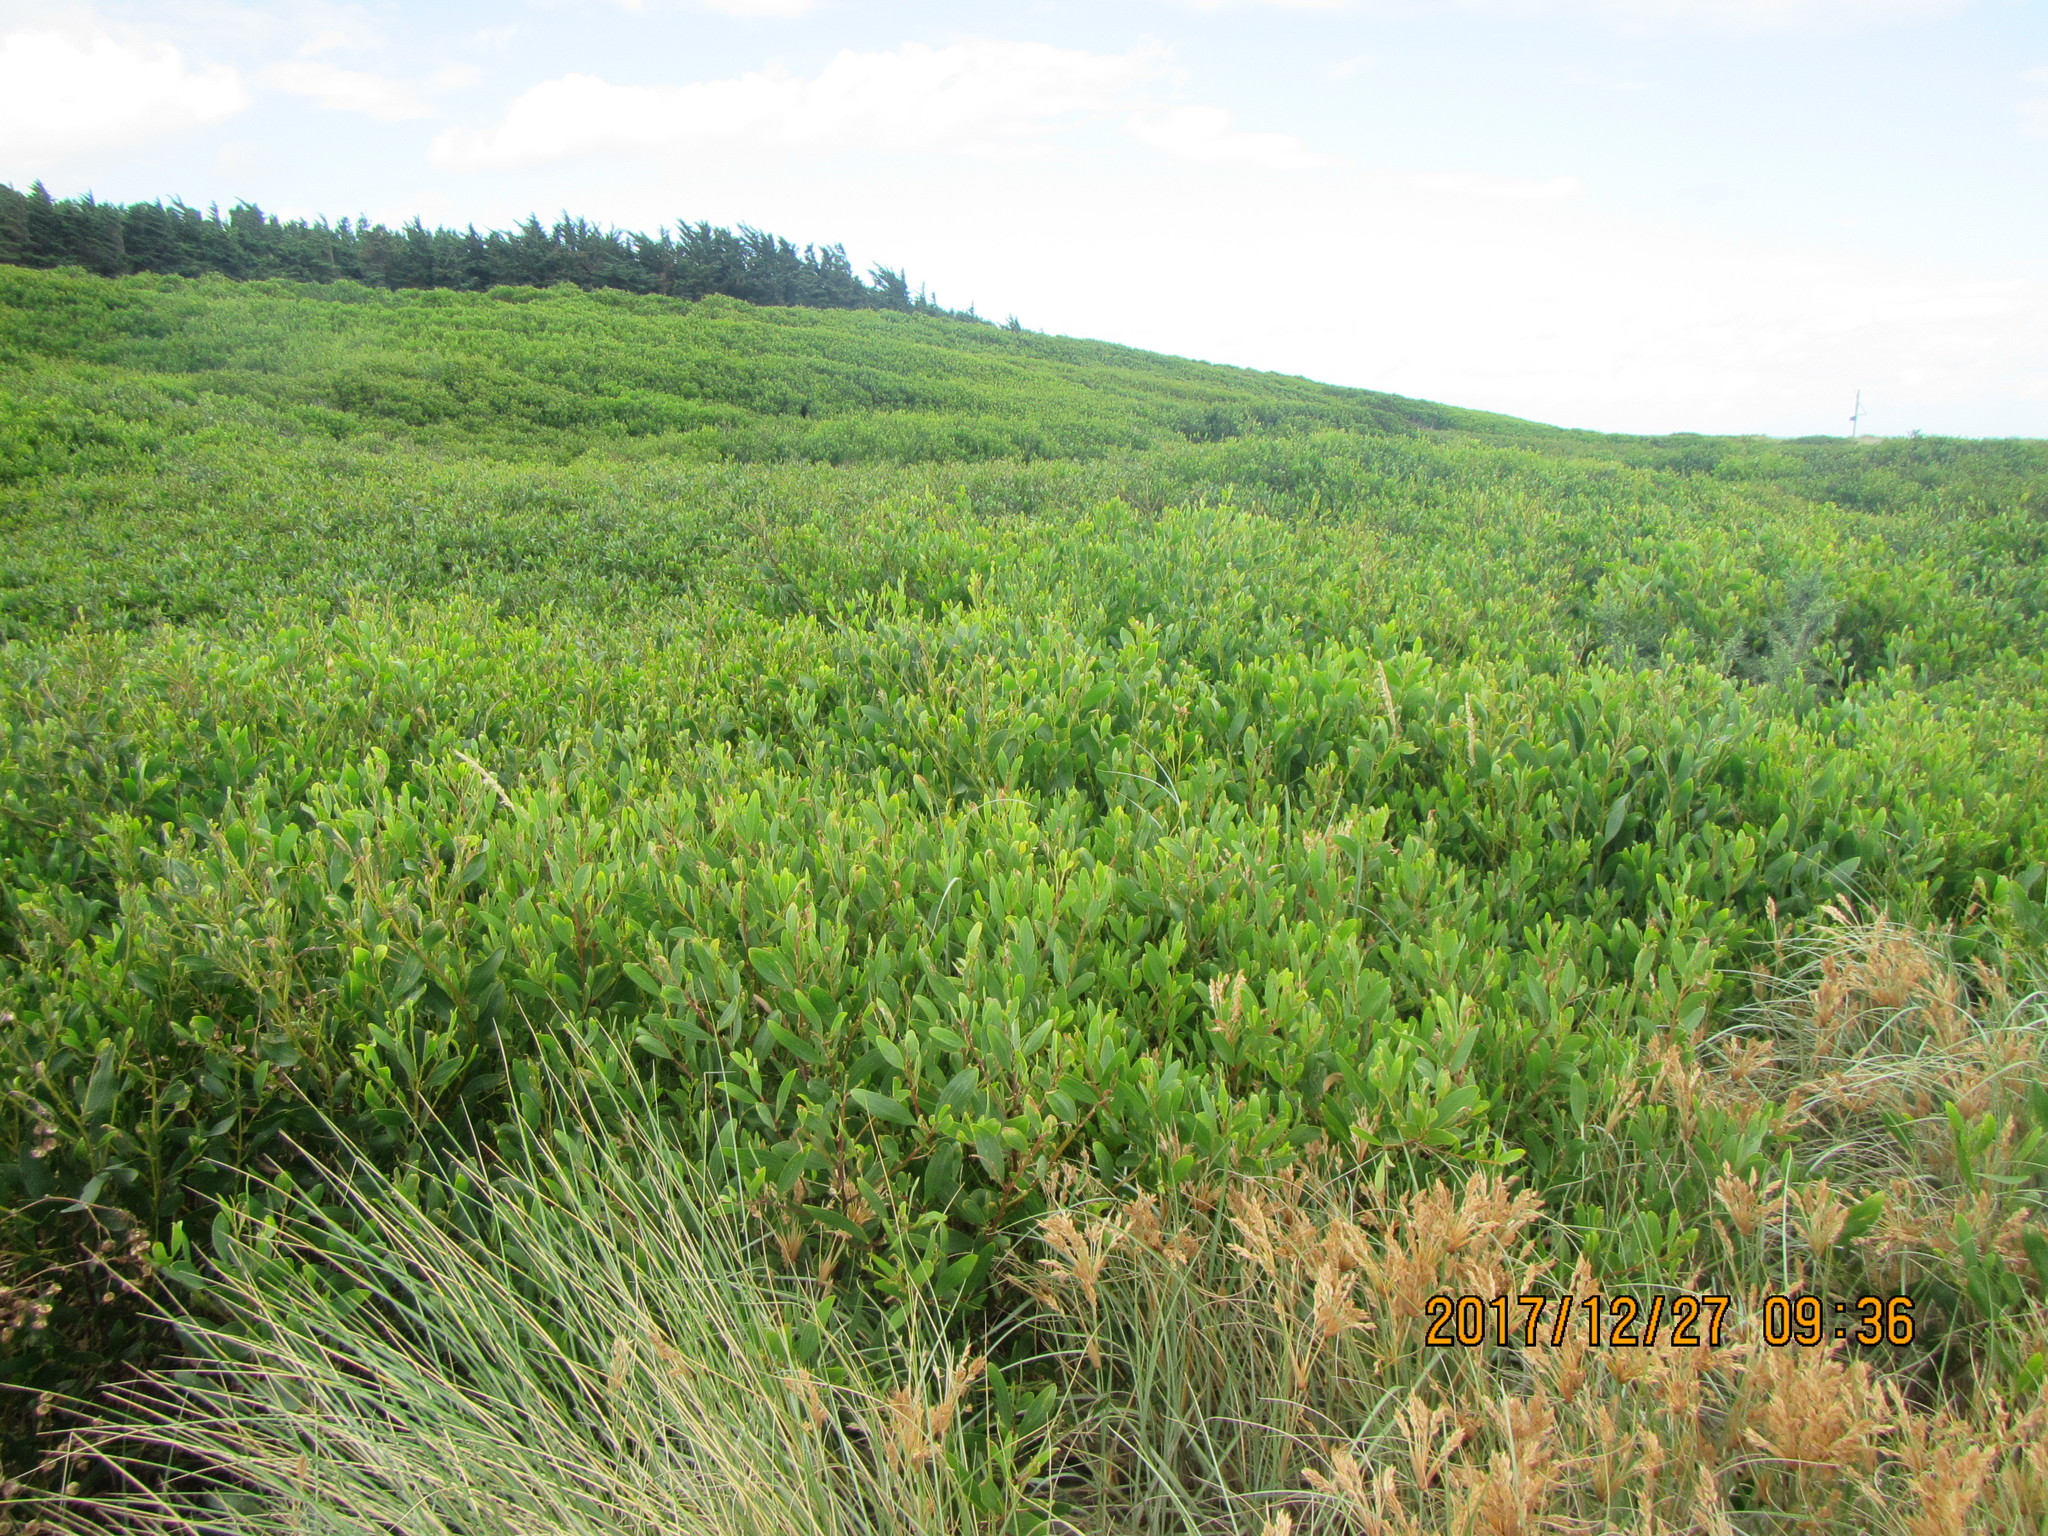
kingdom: Plantae
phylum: Tracheophyta
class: Magnoliopsida
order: Fabales
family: Fabaceae
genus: Acacia
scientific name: Acacia longifolia
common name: Sydney golden wattle
